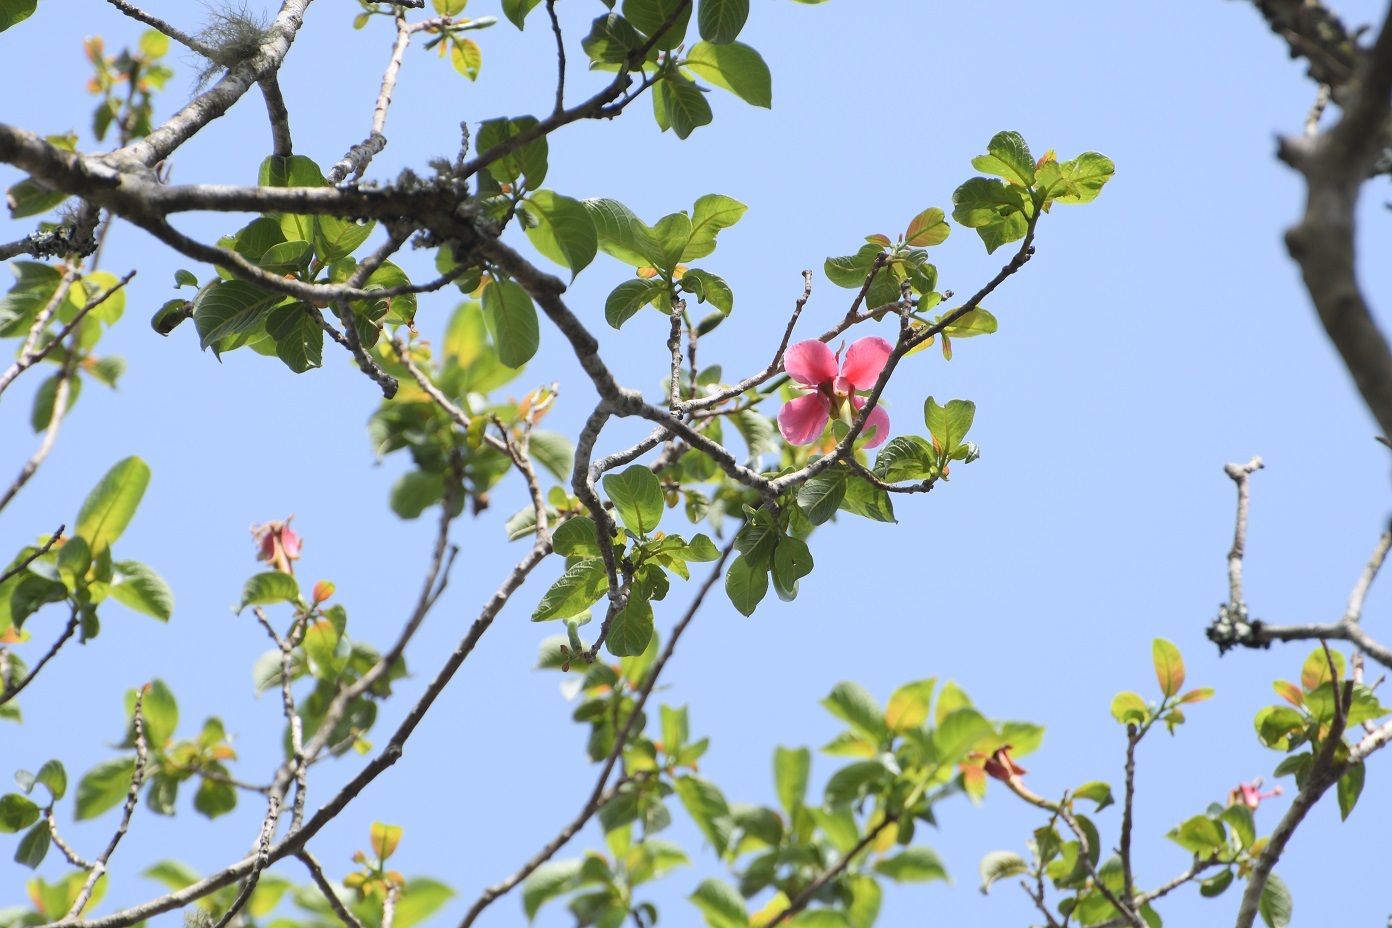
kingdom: Plantae
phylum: Tracheophyta
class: Magnoliopsida
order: Myrtales
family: Onagraceae
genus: Hauya
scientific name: Hauya elegans
